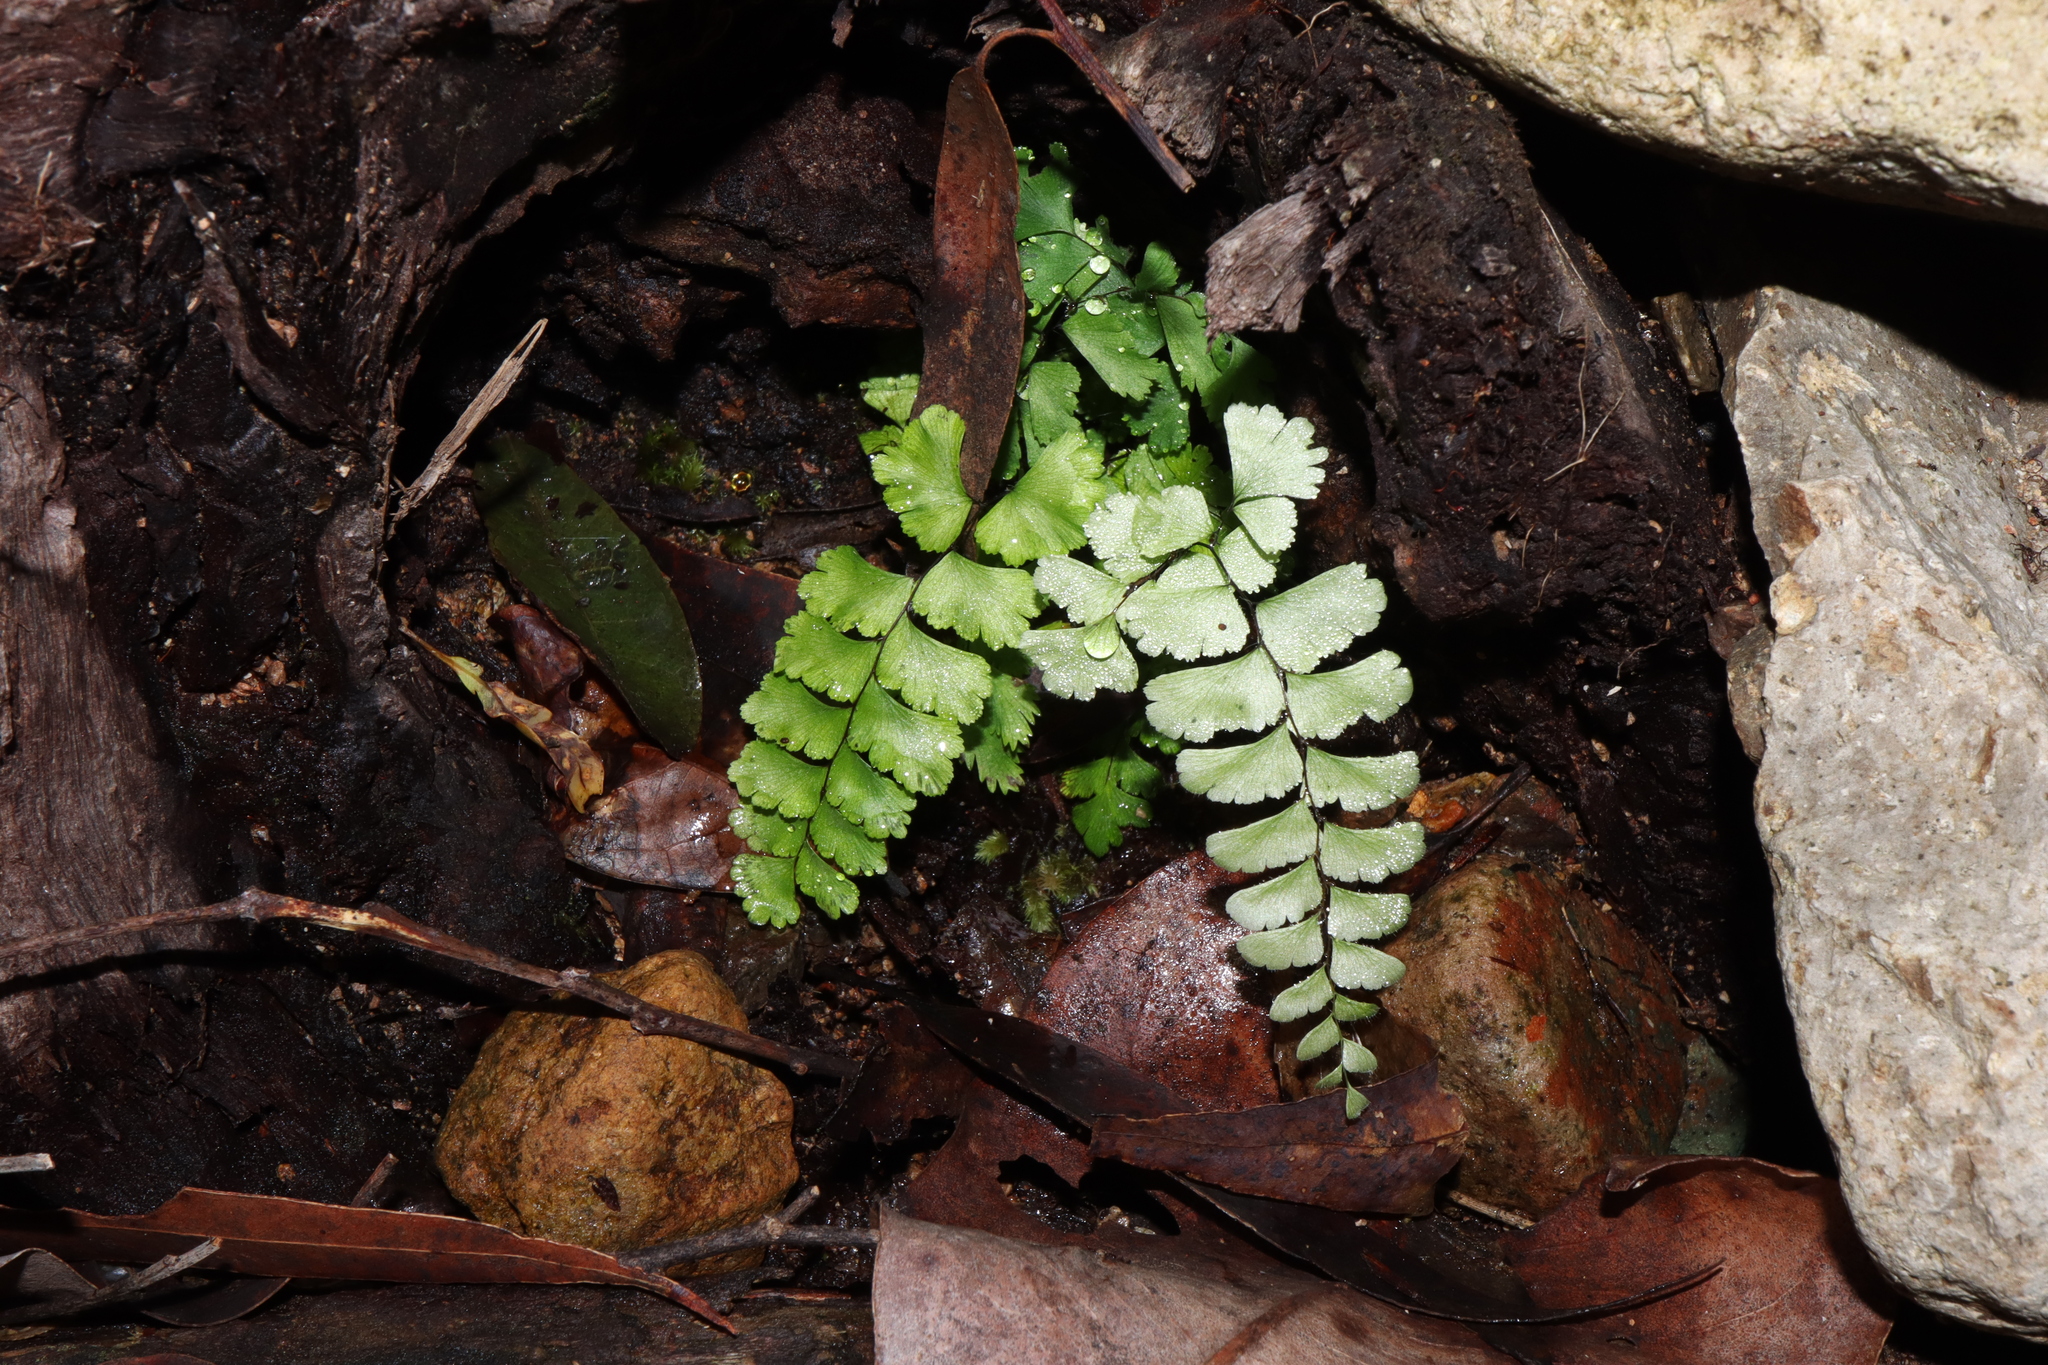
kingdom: Plantae
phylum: Tracheophyta
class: Polypodiopsida
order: Polypodiales
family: Pteridaceae
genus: Adiantum
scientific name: Adiantum diaphanum
